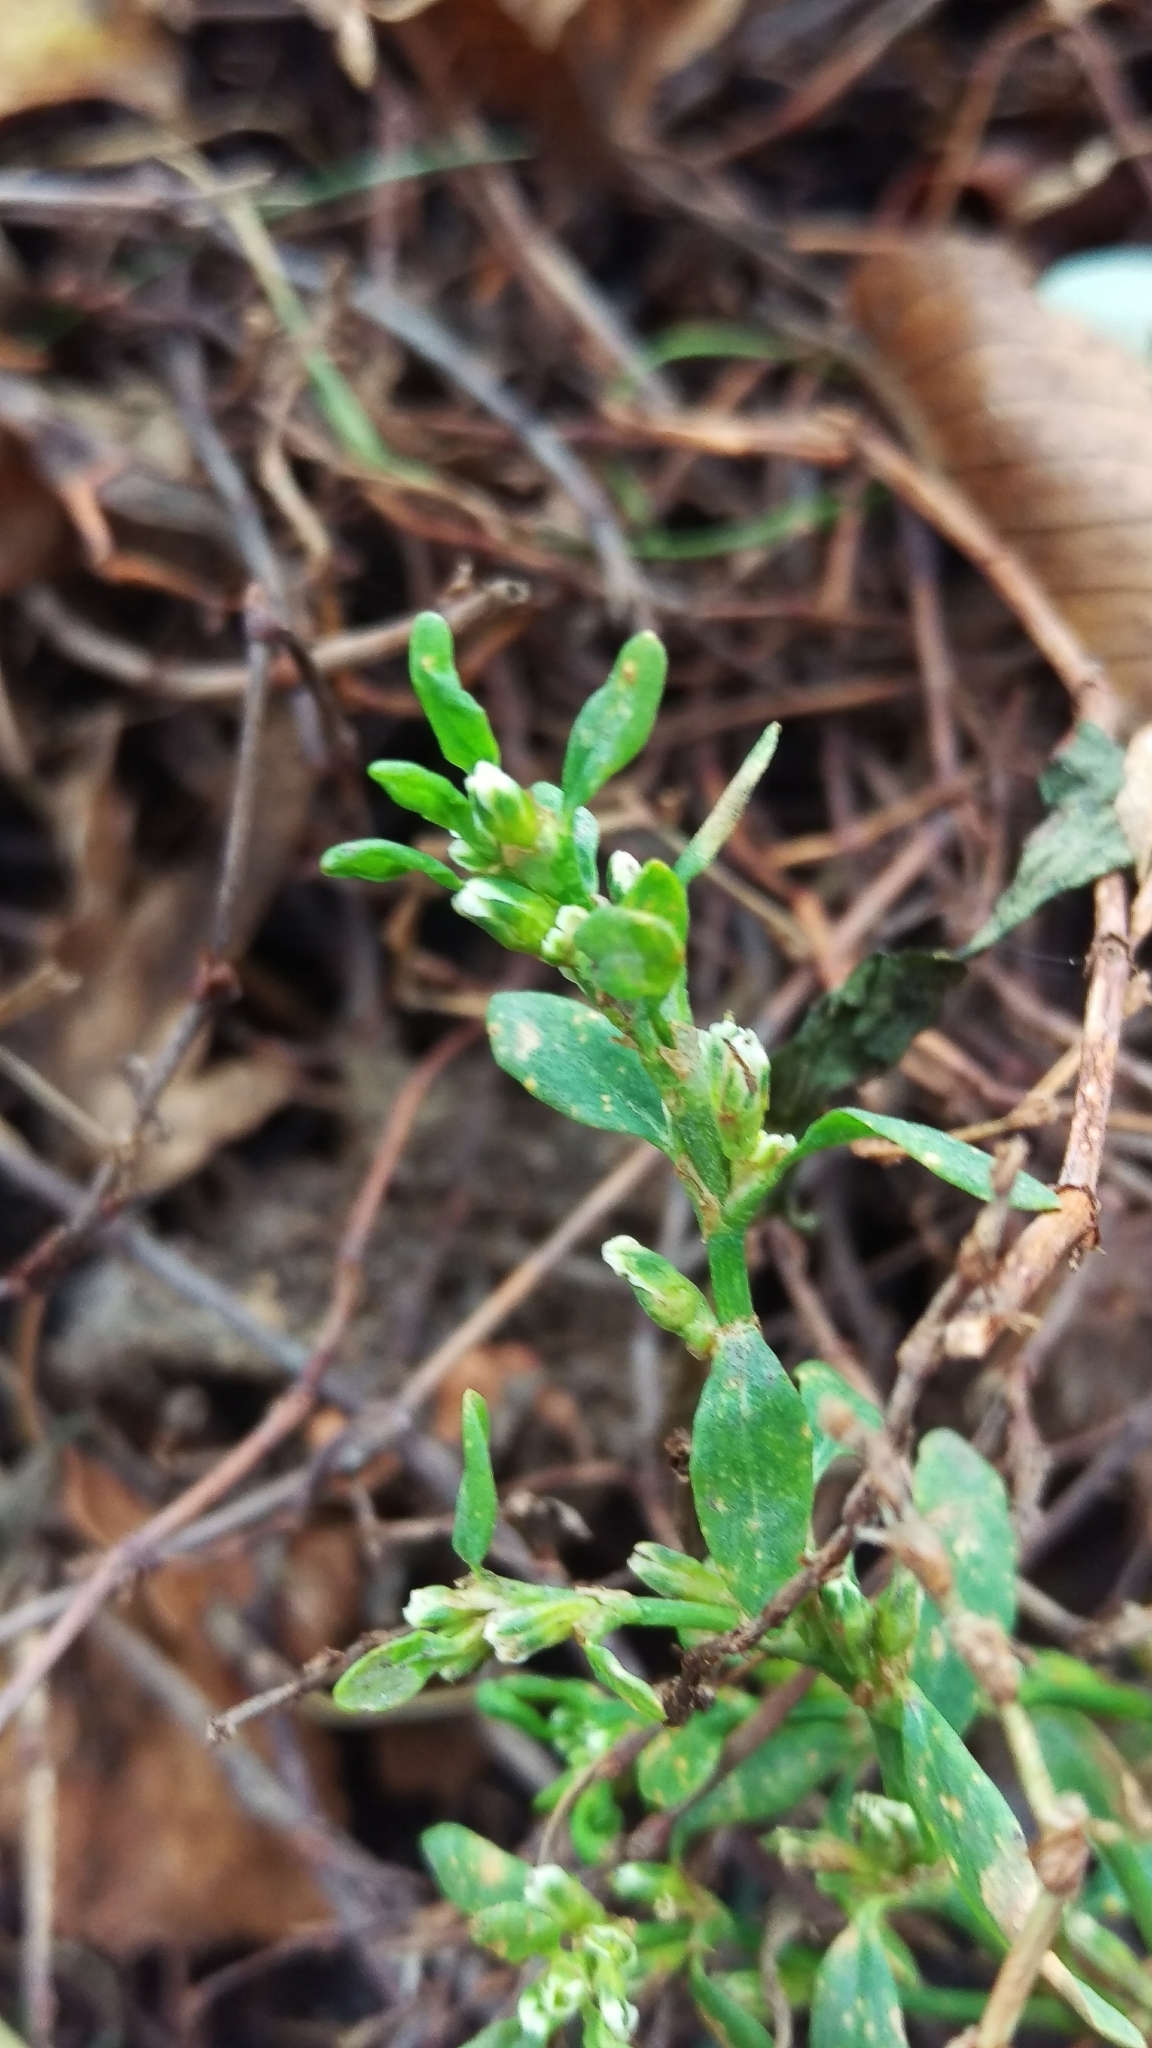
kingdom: Plantae
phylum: Tracheophyta
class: Magnoliopsida
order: Caryophyllales
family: Polygonaceae
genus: Polygonum
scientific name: Polygonum aviculare
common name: Prostrate knotweed
